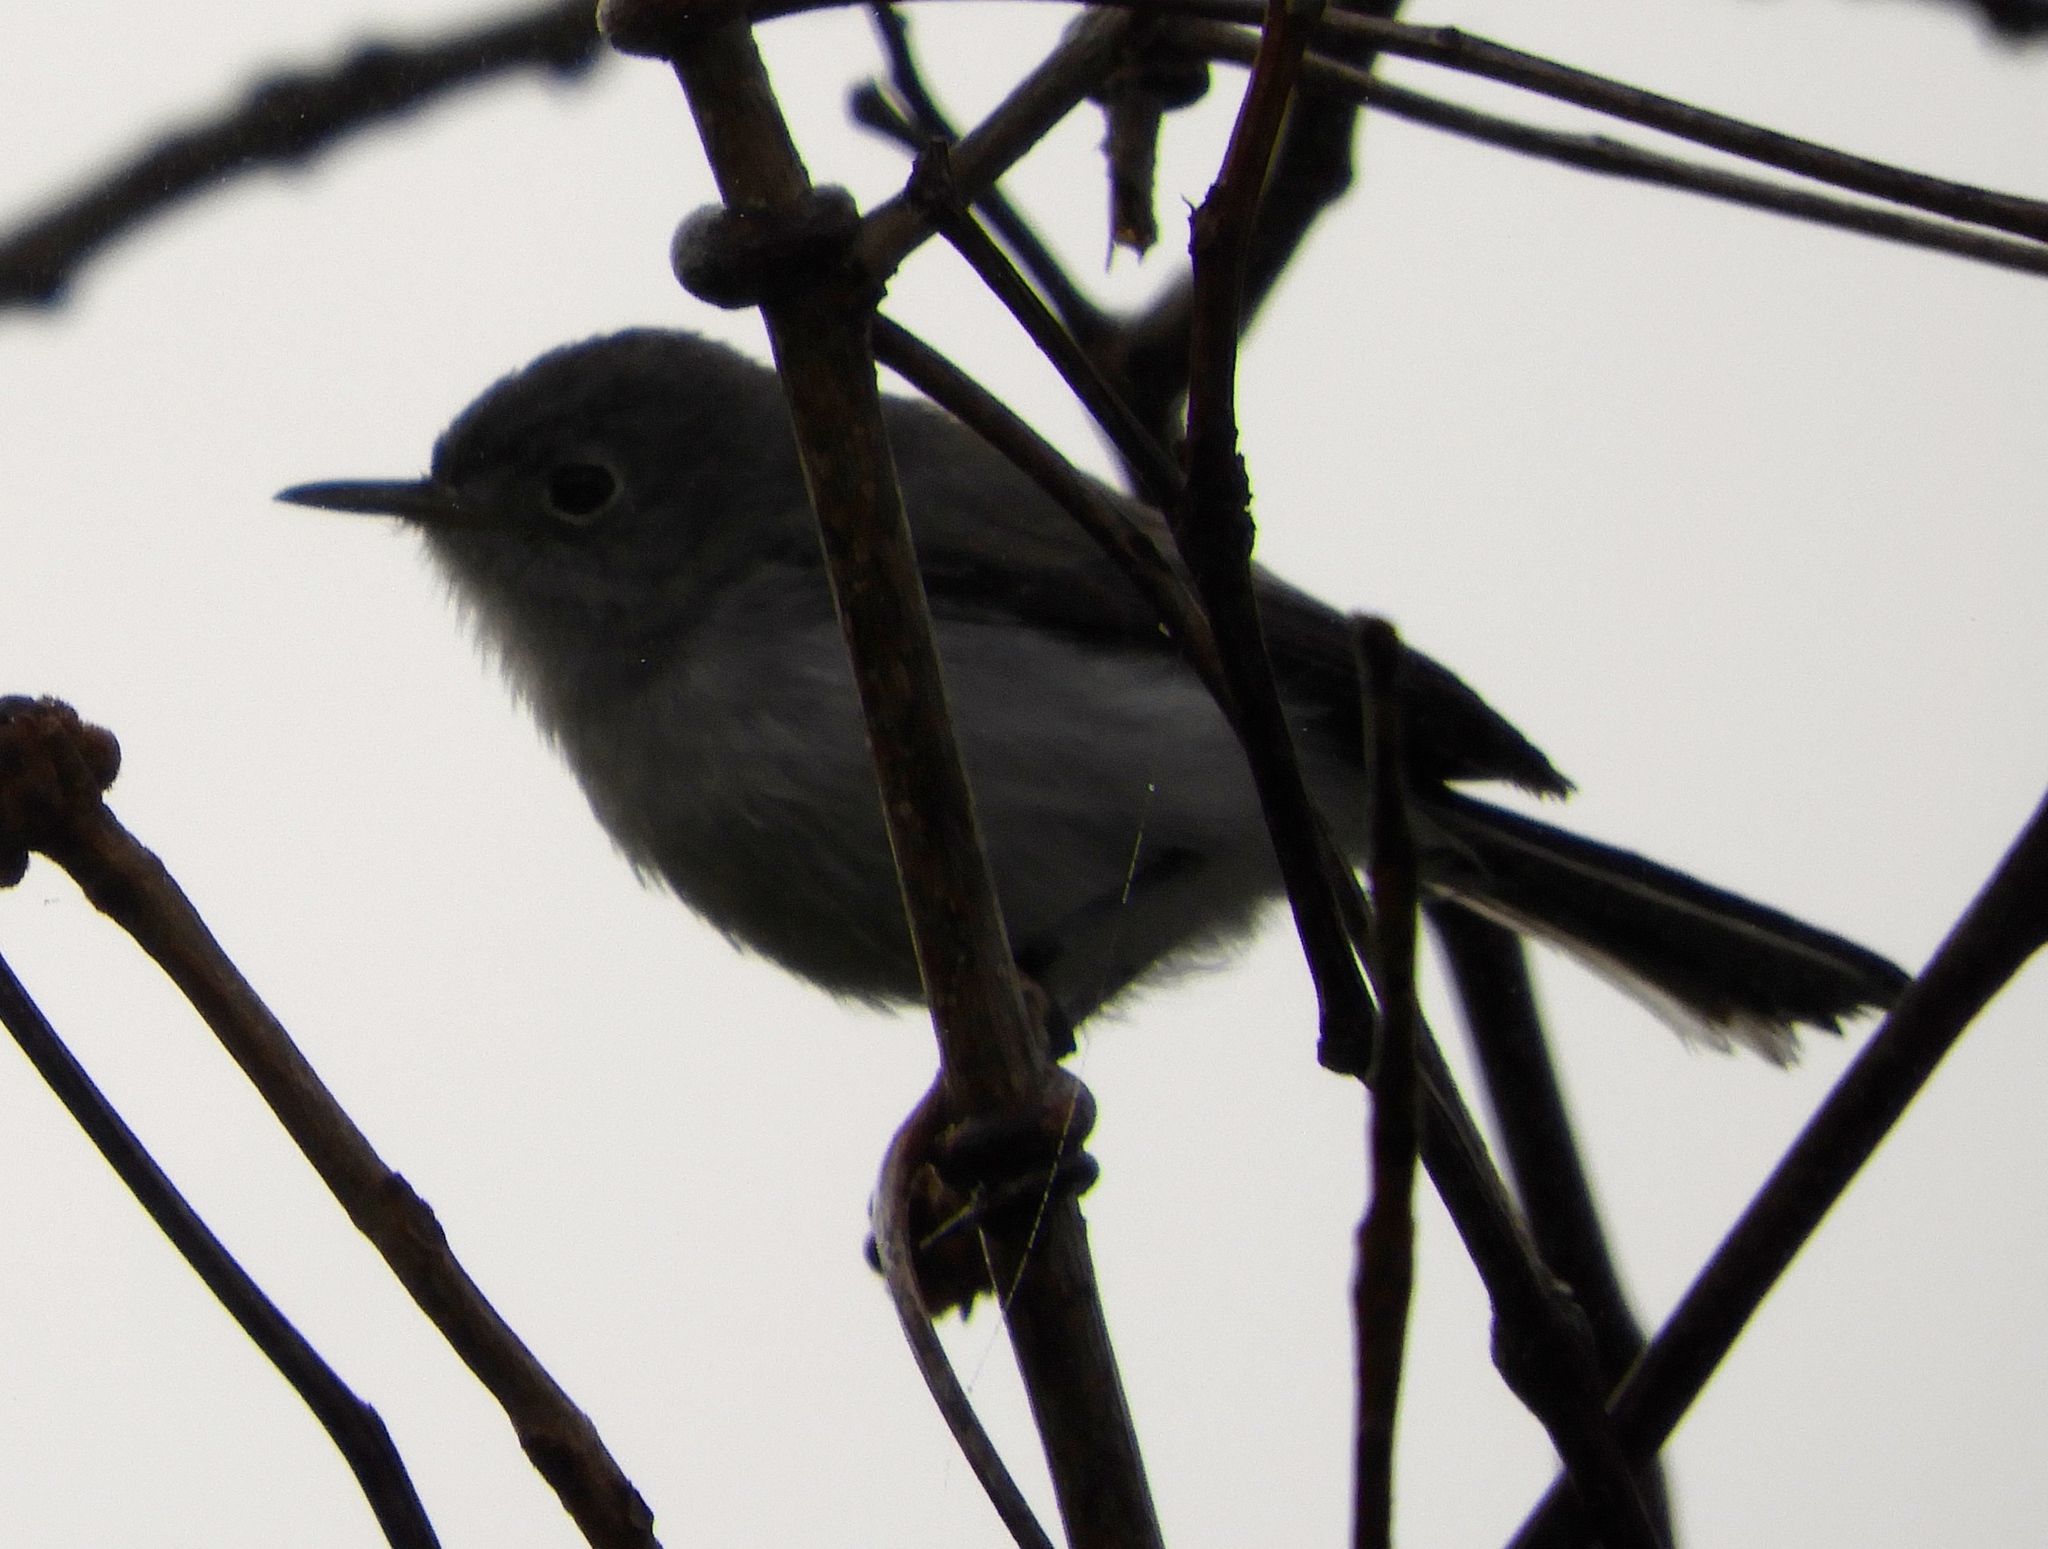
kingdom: Animalia
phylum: Chordata
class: Aves
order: Passeriformes
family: Polioptilidae
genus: Polioptila
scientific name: Polioptila
